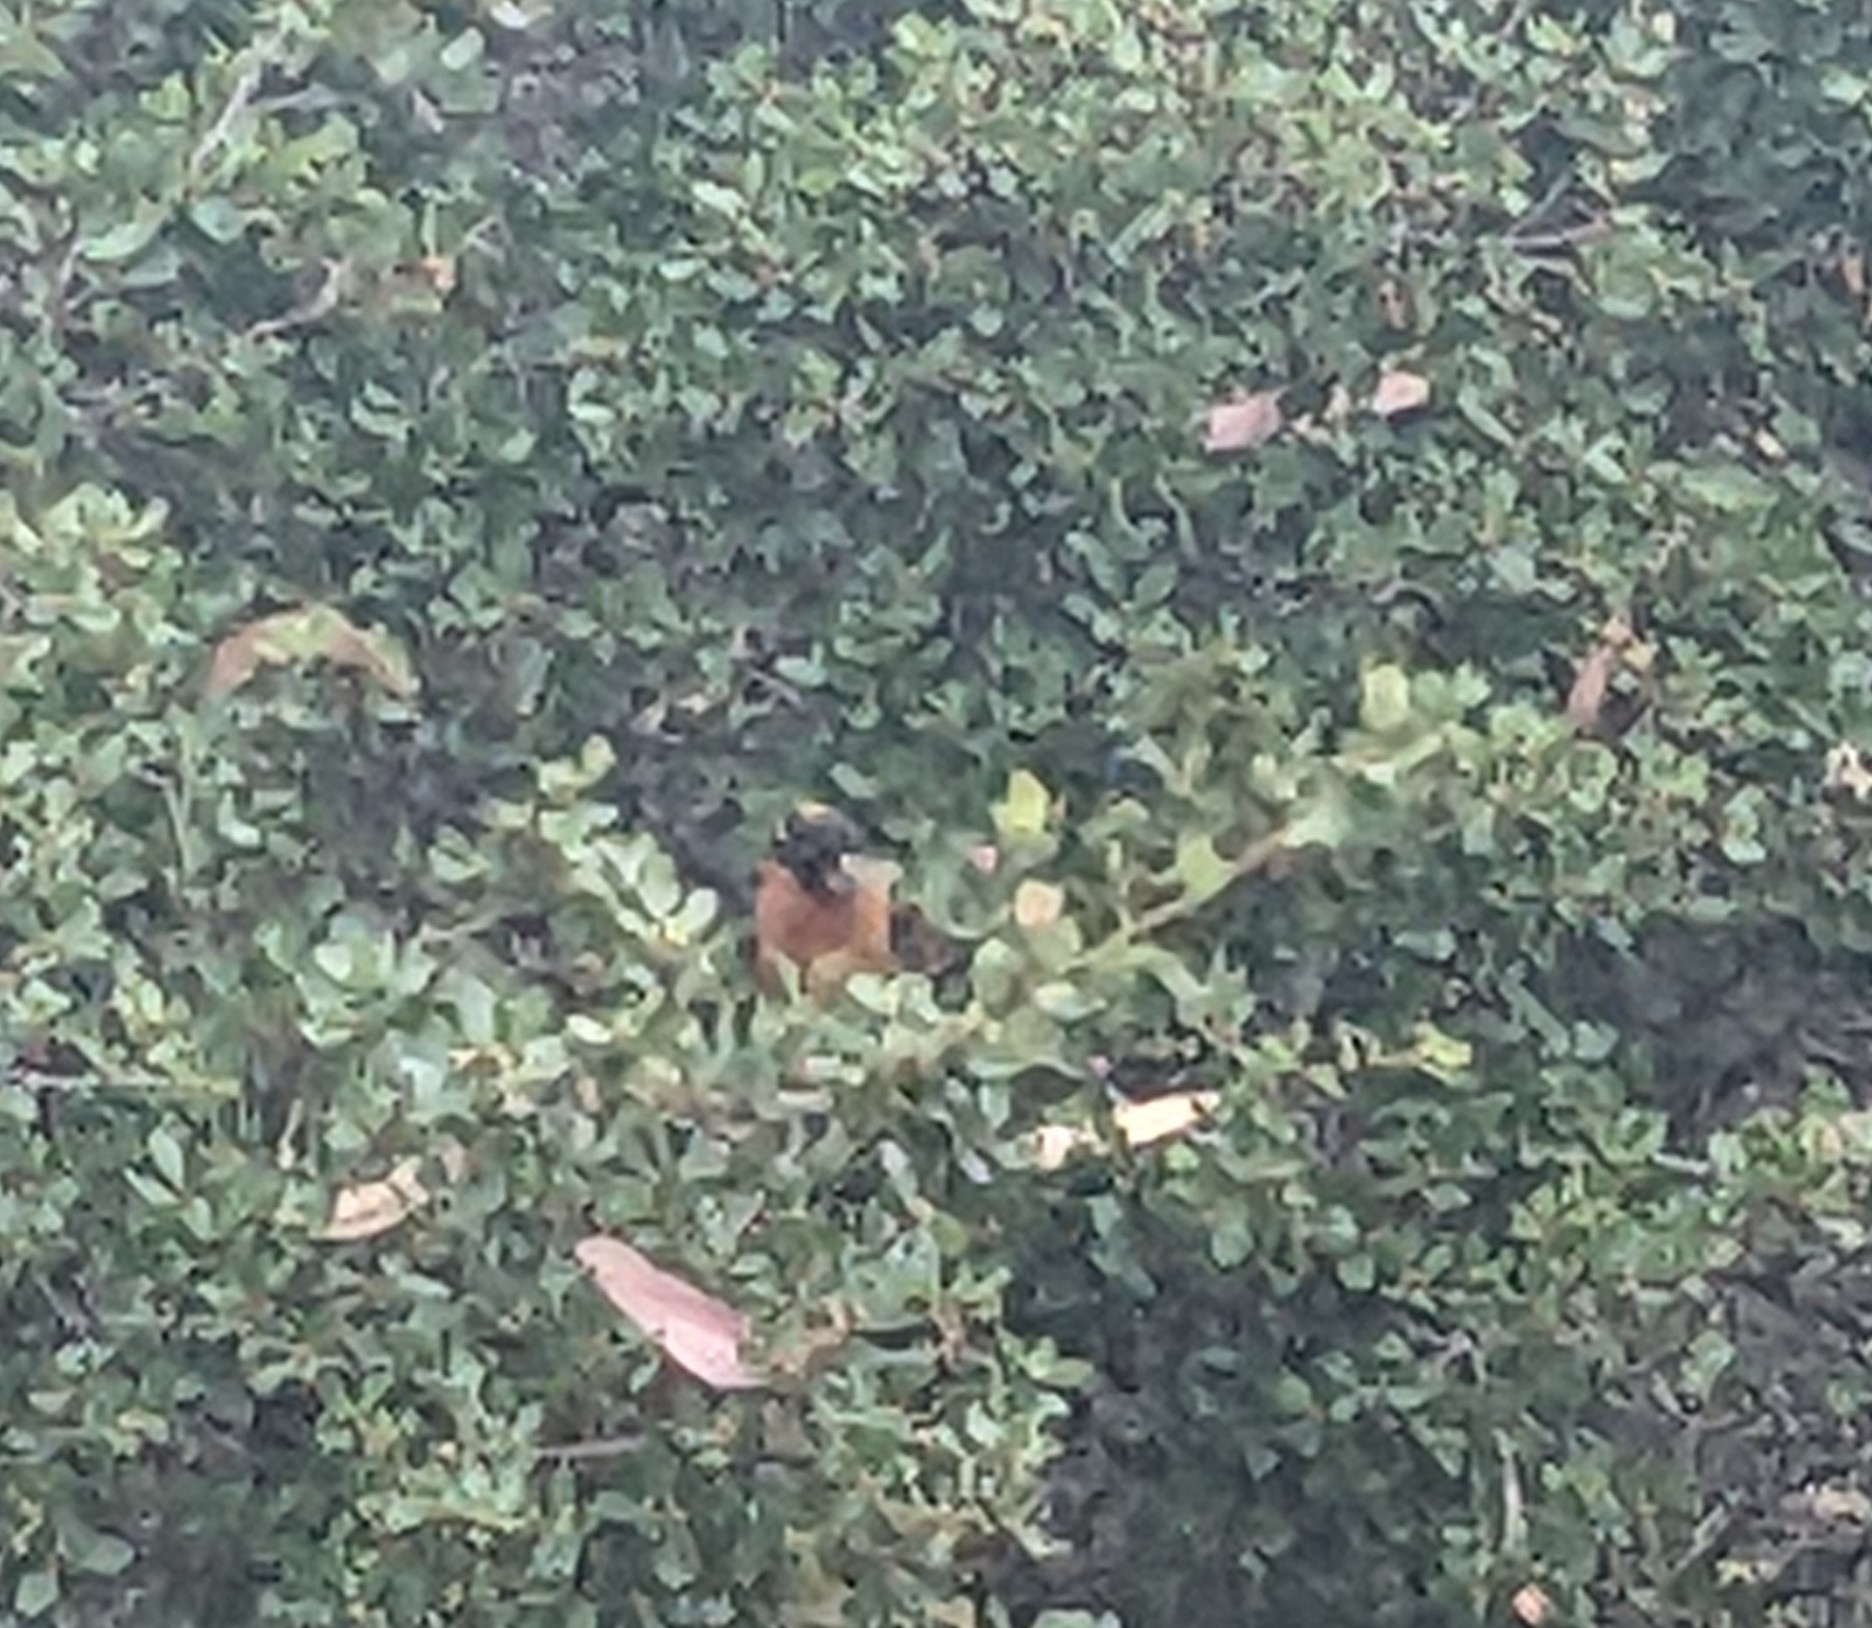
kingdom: Animalia
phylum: Chordata
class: Aves
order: Passeriformes
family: Cardinalidae
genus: Pheucticus
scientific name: Pheucticus melanocephalus
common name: Black-headed grosbeak
